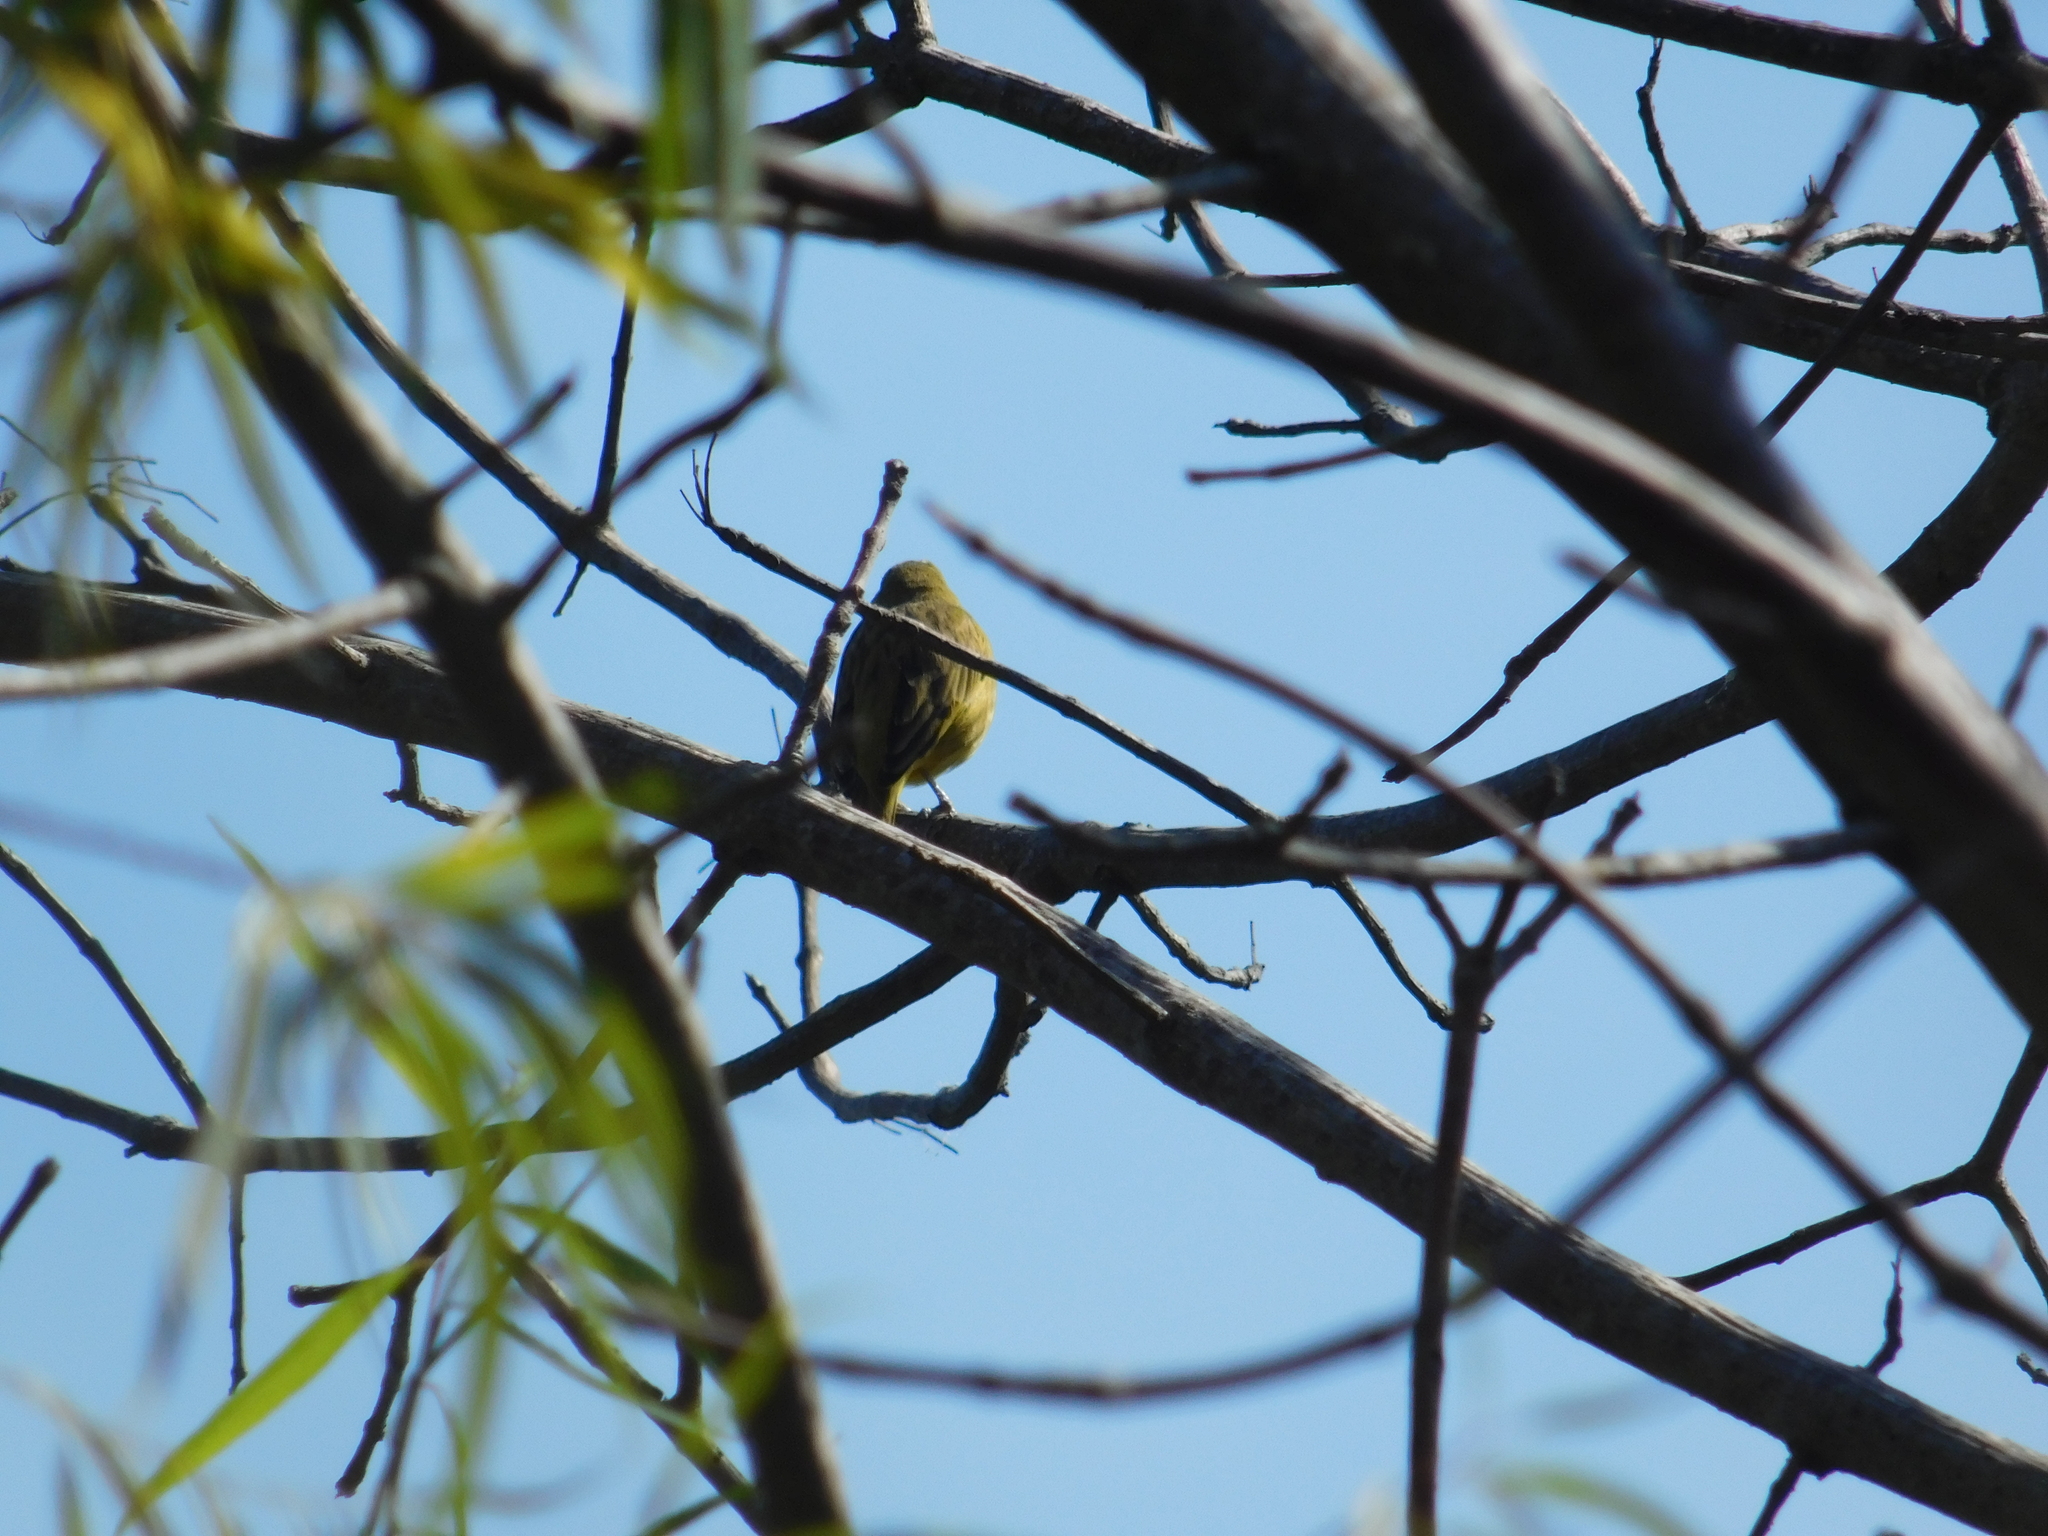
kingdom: Animalia
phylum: Chordata
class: Aves
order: Passeriformes
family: Fringillidae
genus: Spinus
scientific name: Spinus magellanicus
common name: Hooded siskin
